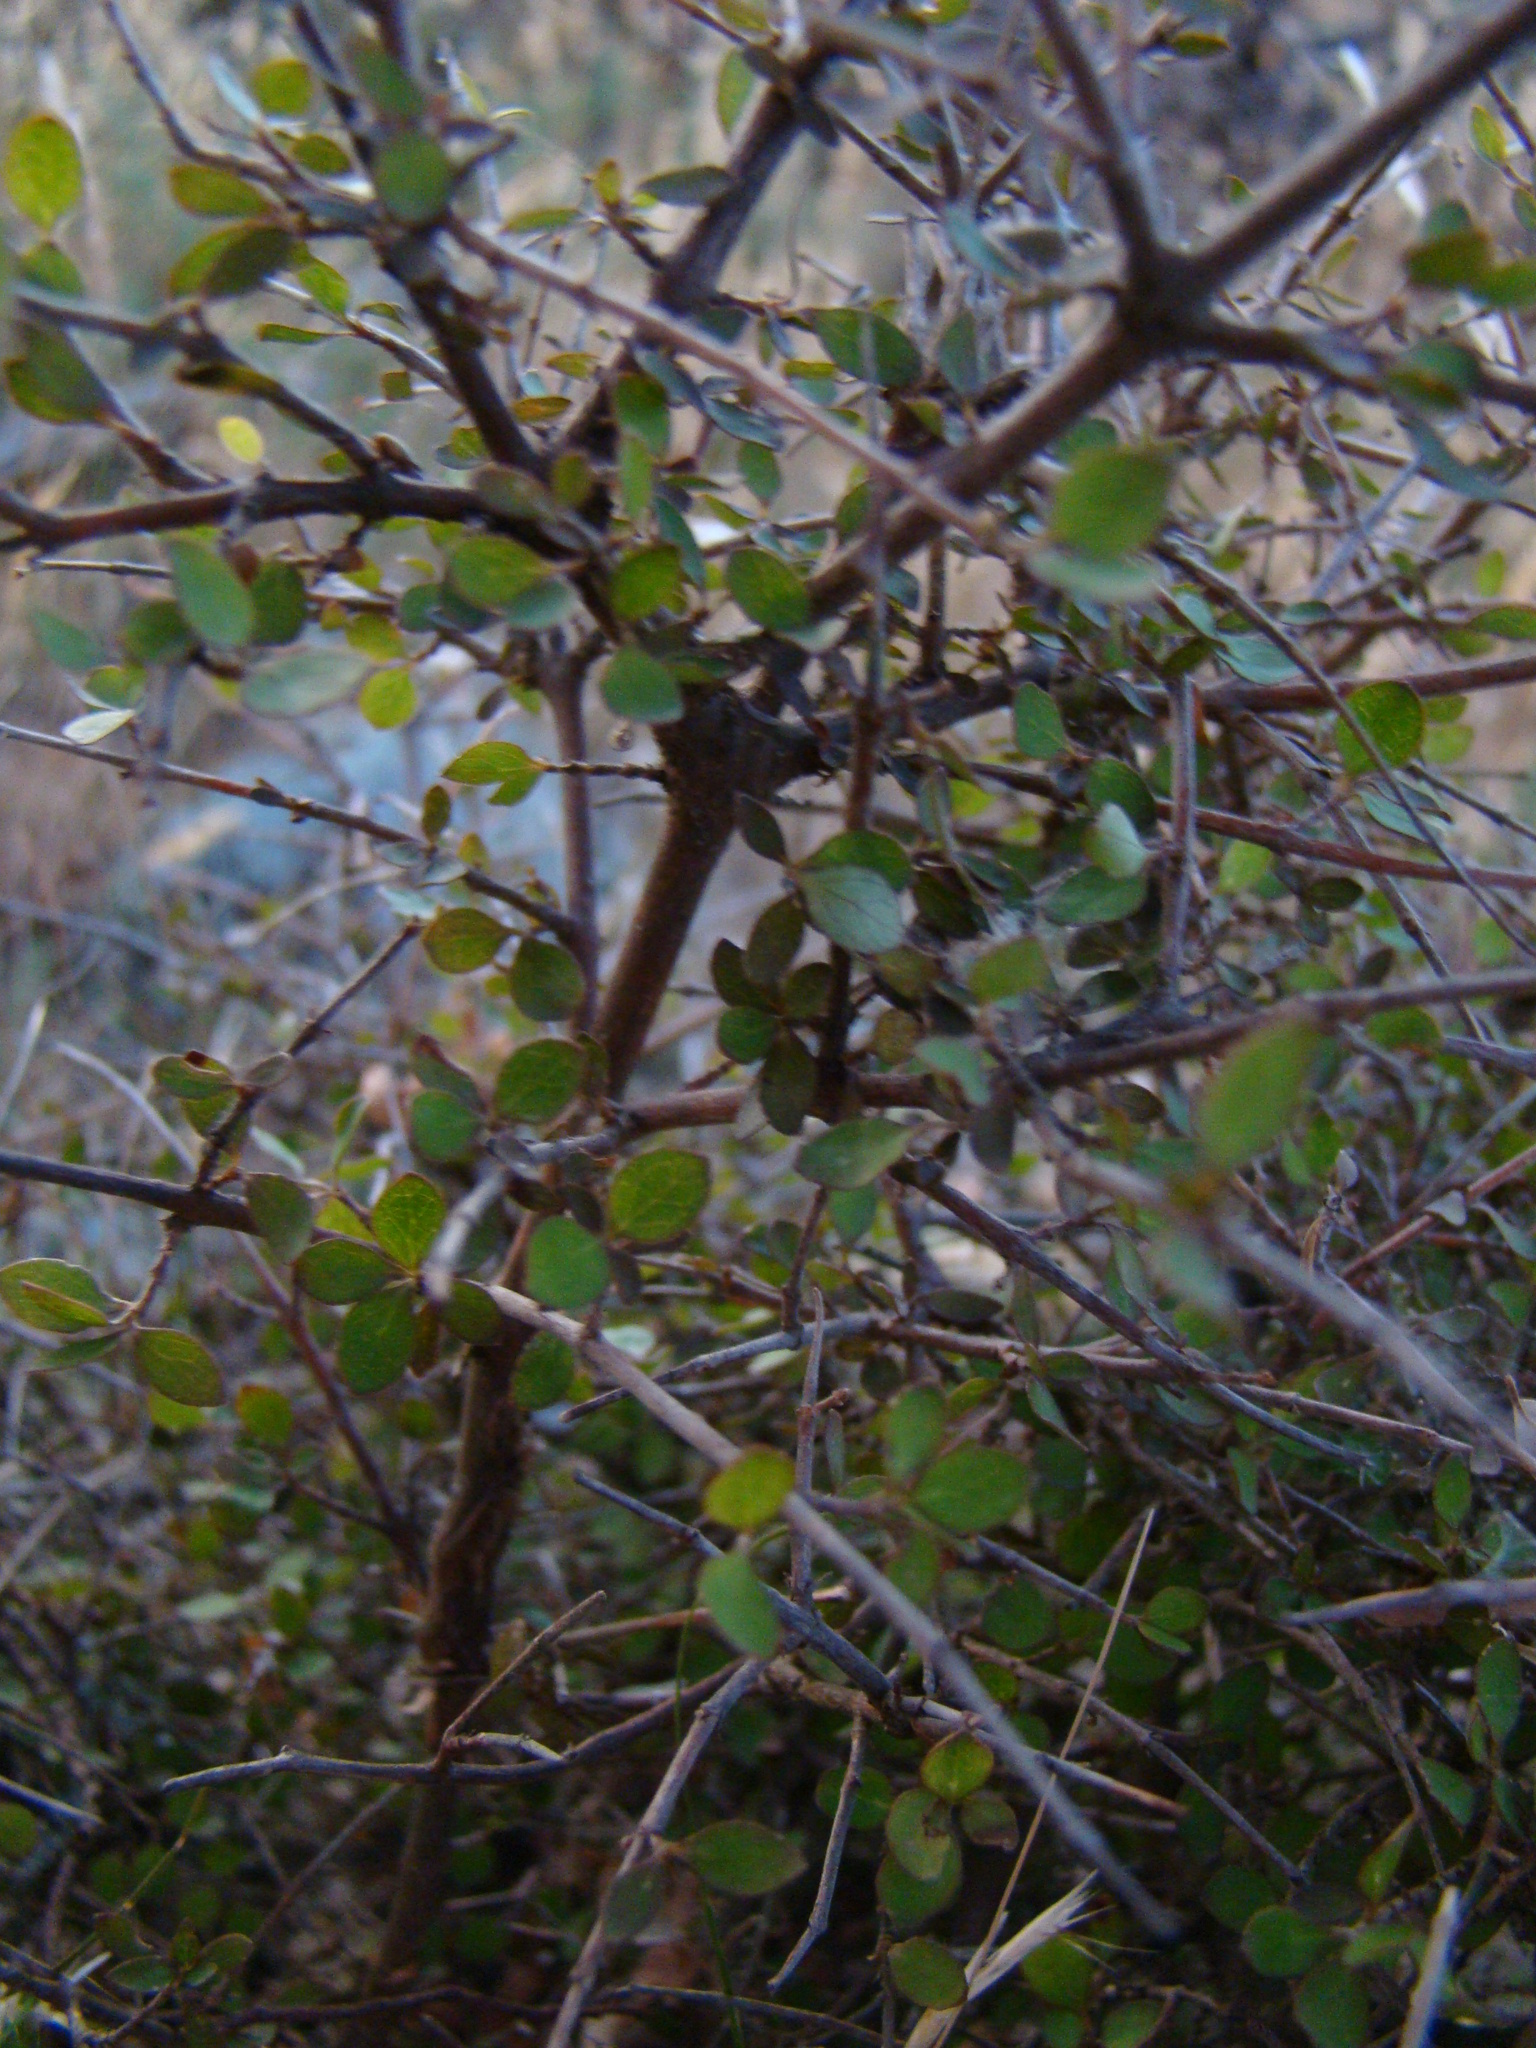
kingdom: Plantae
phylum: Tracheophyta
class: Magnoliopsida
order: Gentianales
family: Rubiaceae
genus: Coprosma
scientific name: Coprosma rhamnoides
